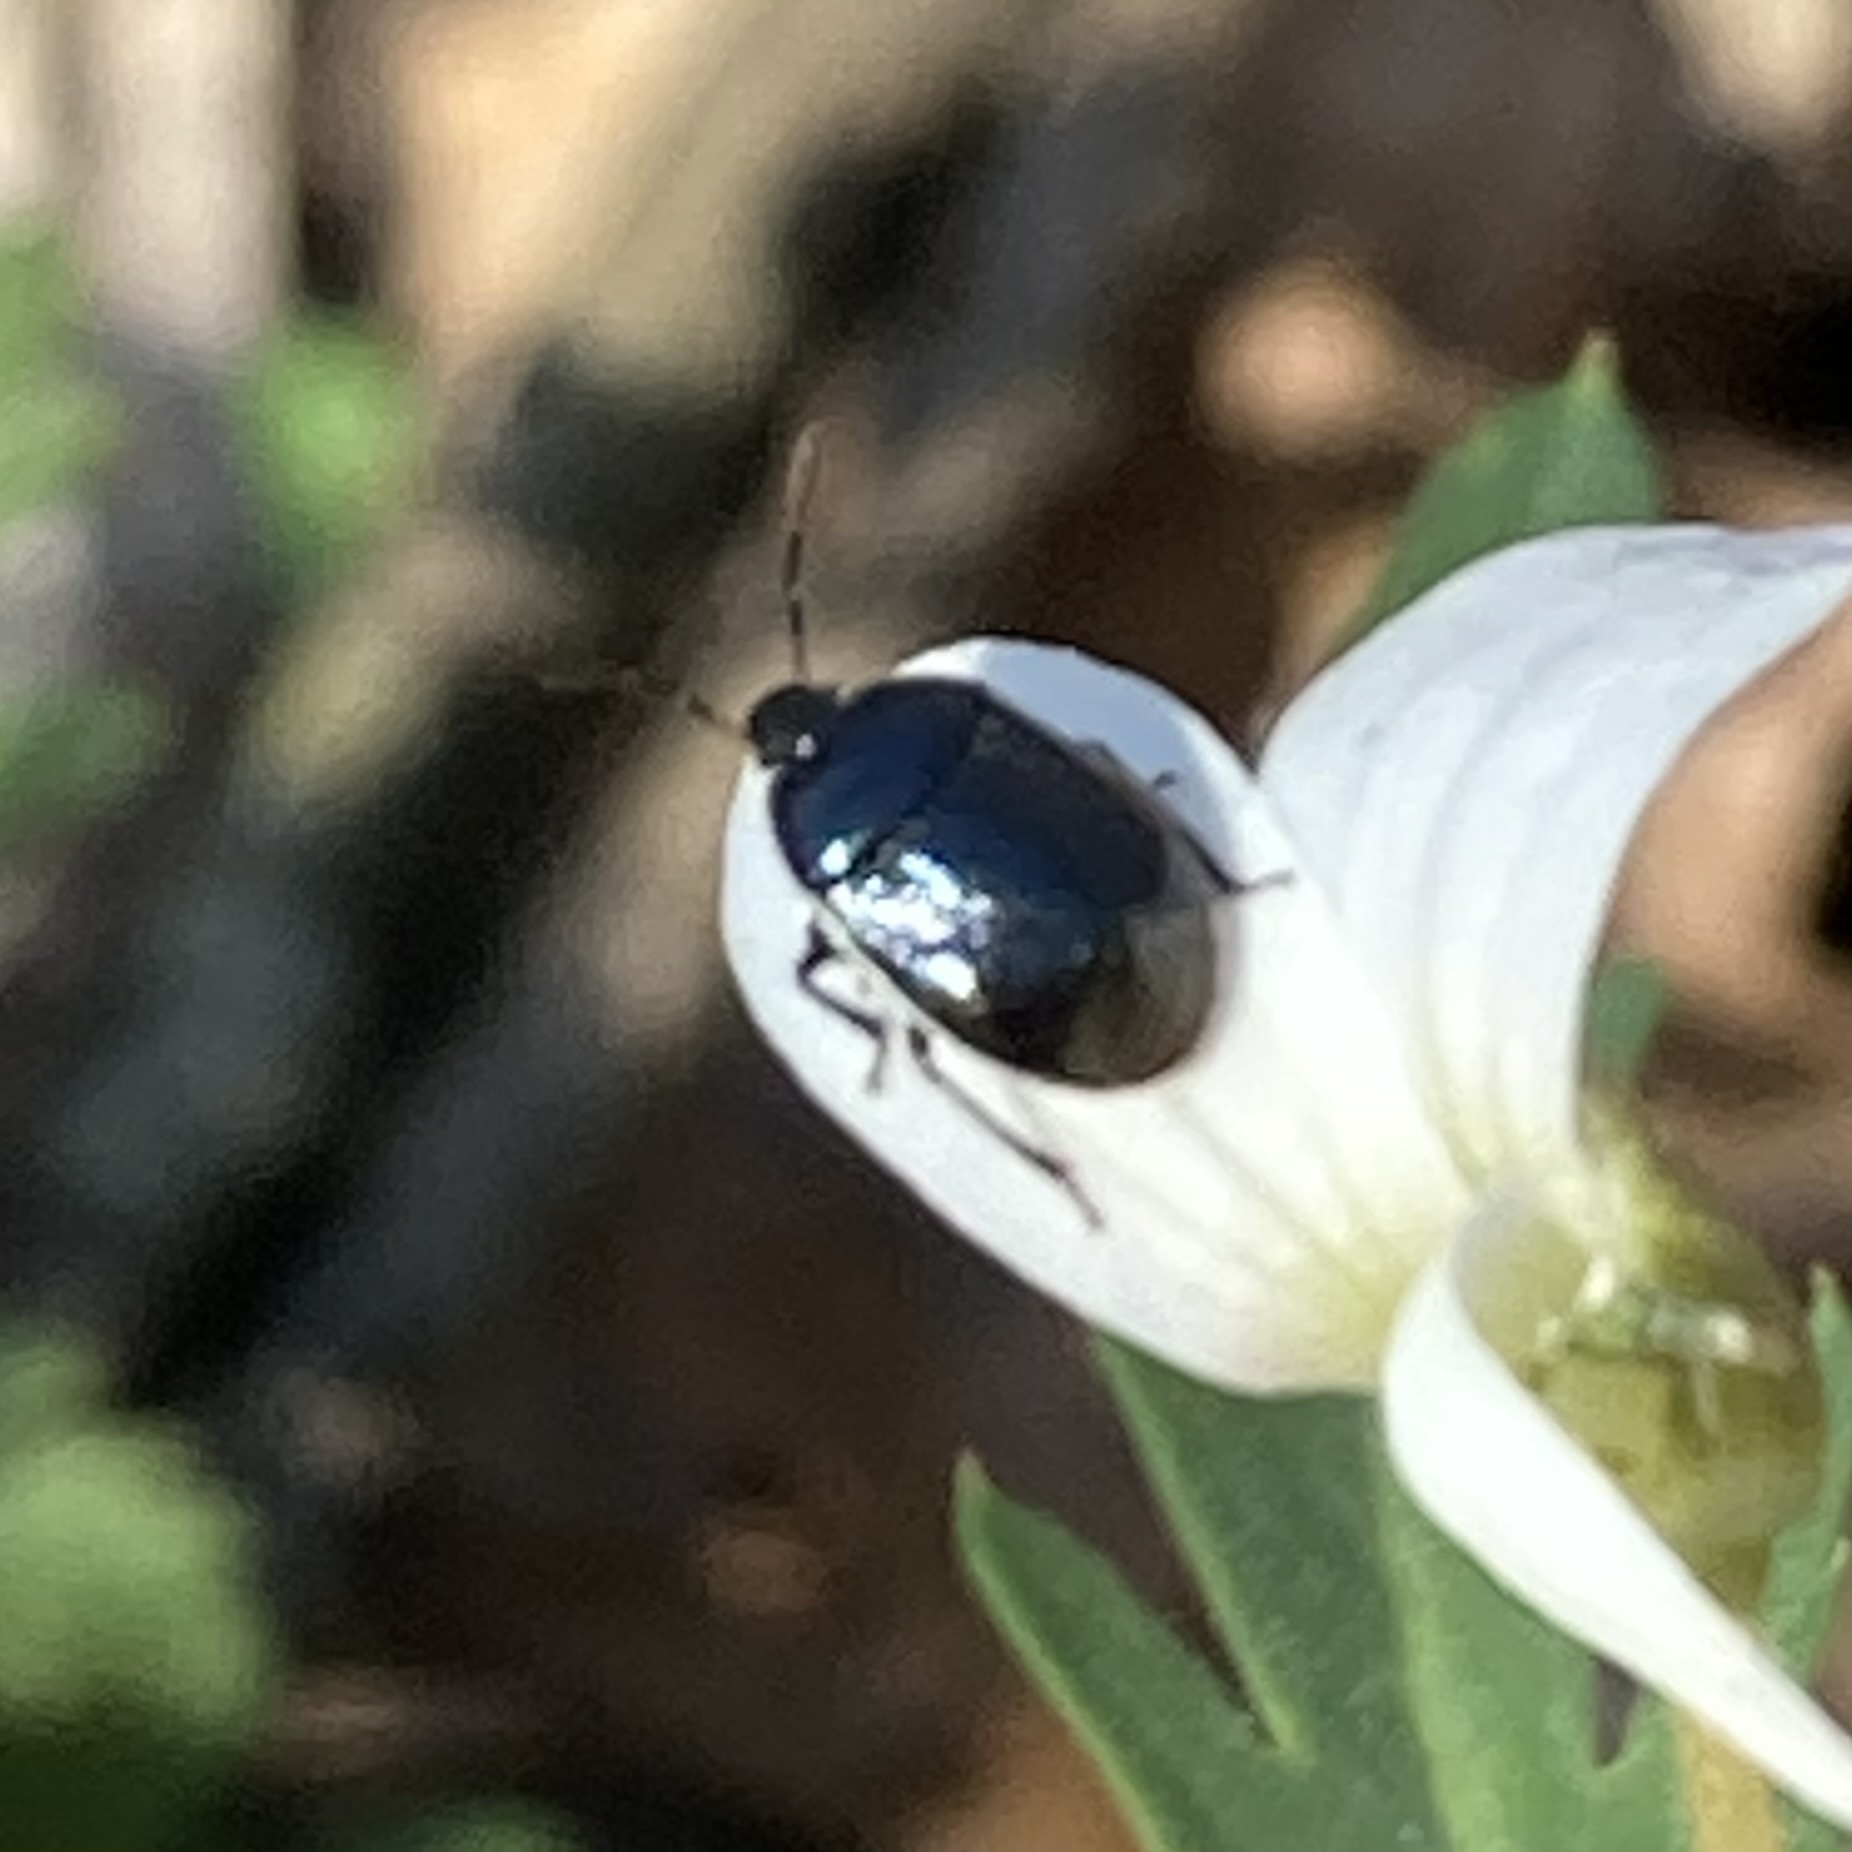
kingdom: Animalia
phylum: Arthropoda
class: Insecta
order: Hemiptera
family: Cydnidae
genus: Sehirus
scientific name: Sehirus cinctus
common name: White-margined burrower bug
